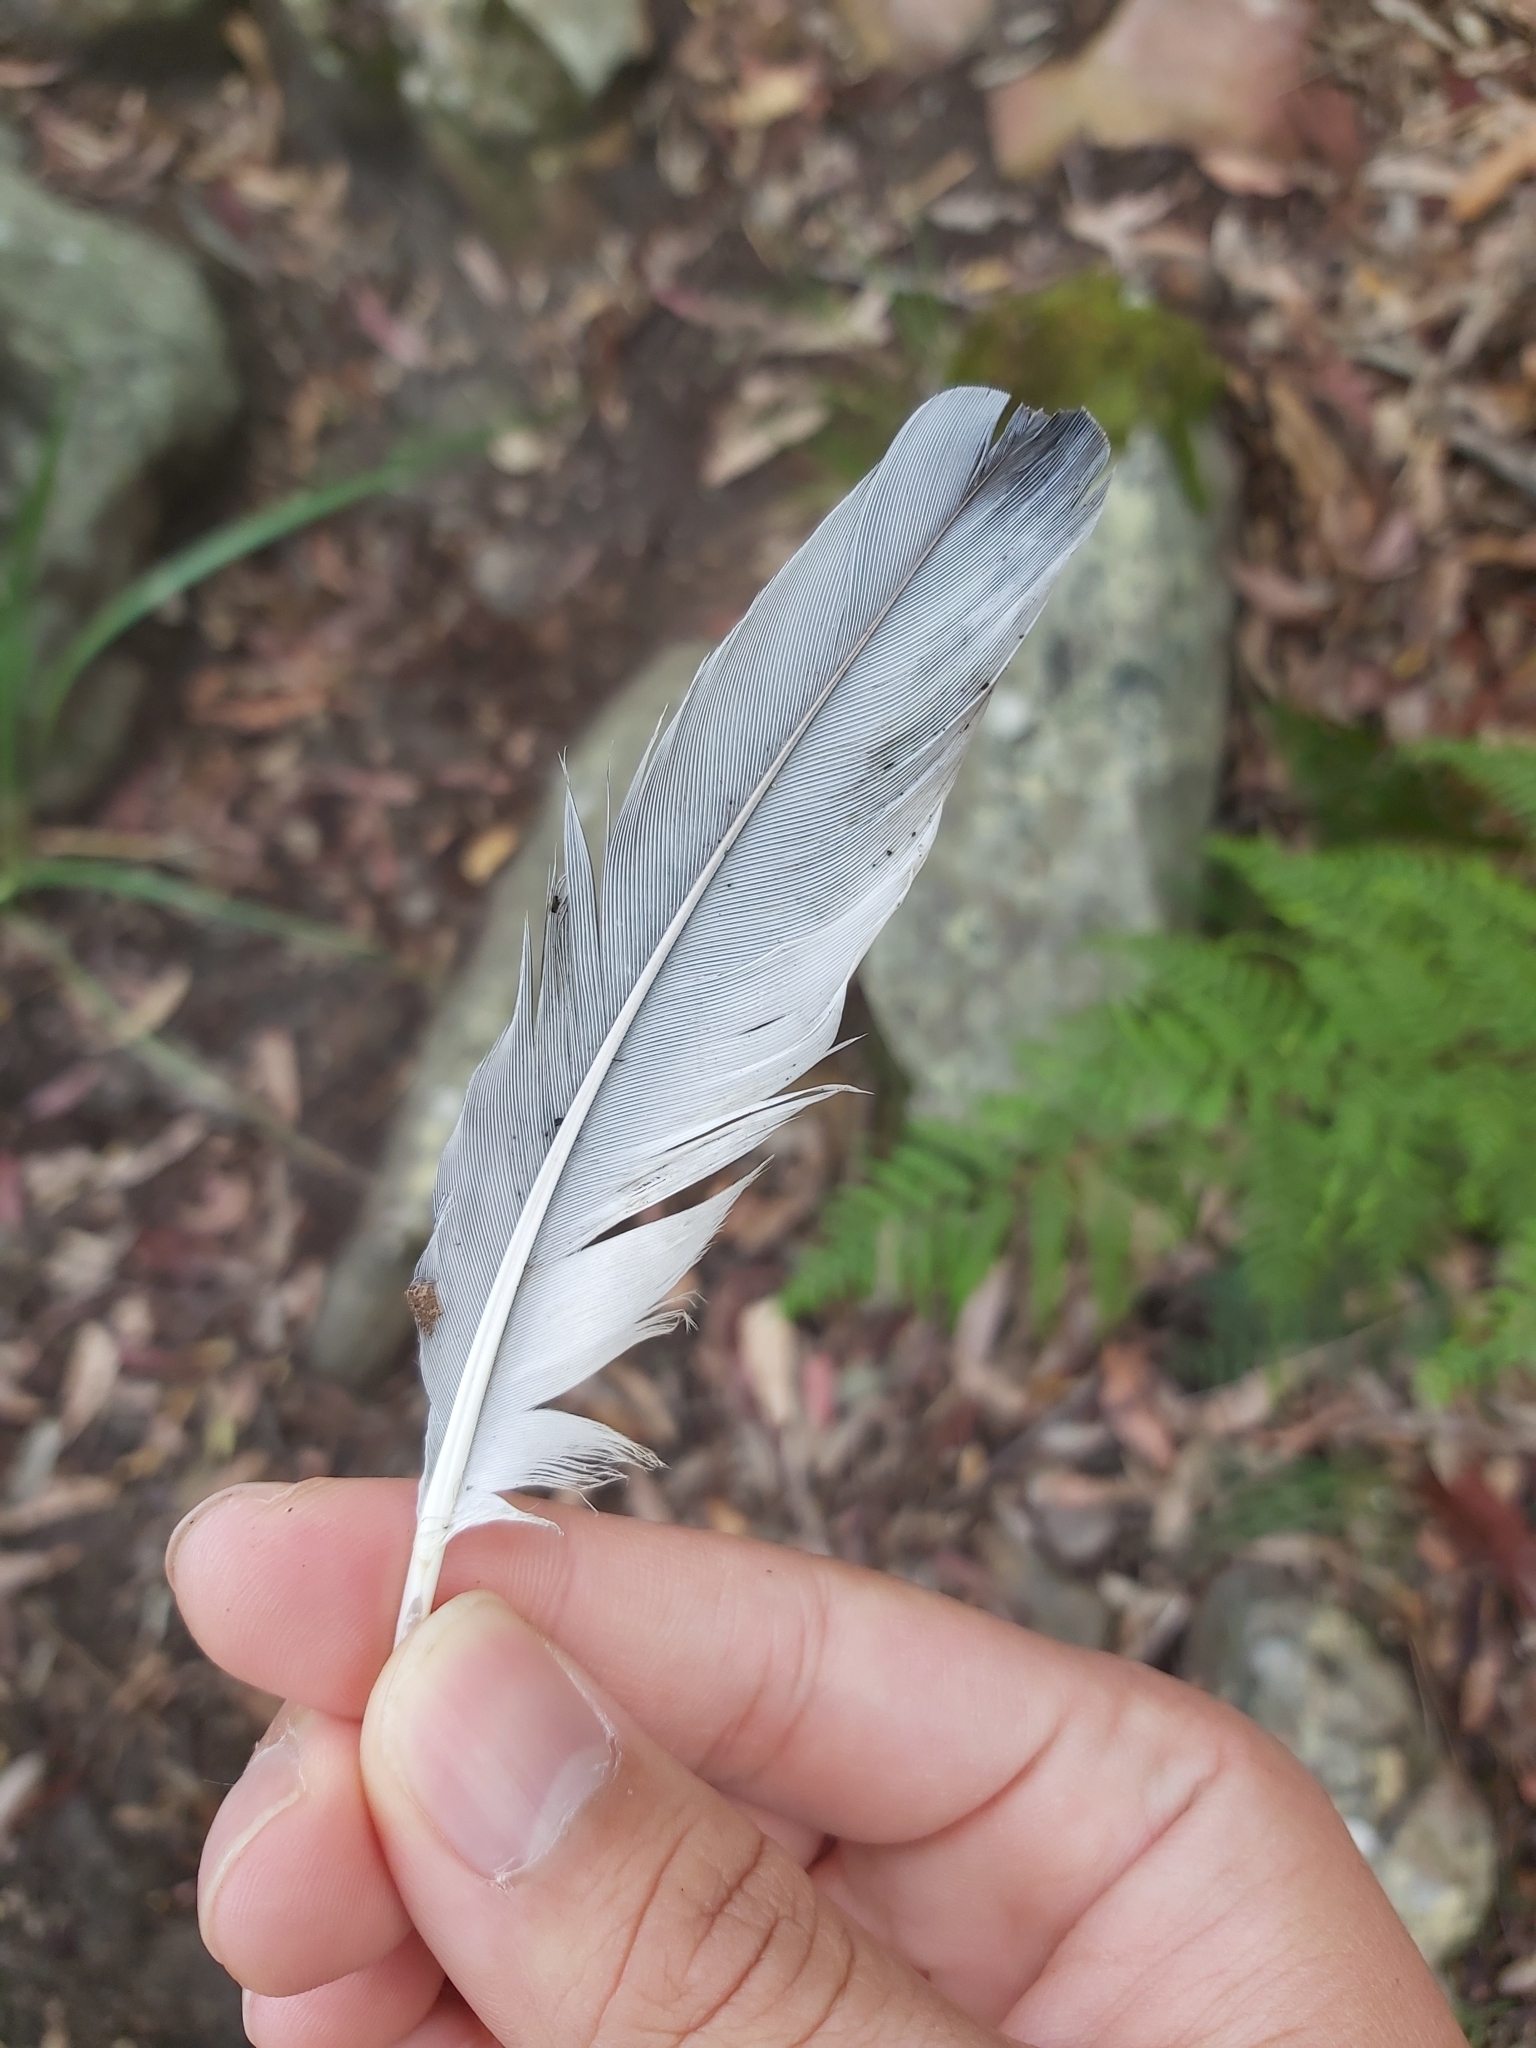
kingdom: Animalia
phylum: Chordata
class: Aves
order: Passeriformes
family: Campephagidae
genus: Coracina
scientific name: Coracina novaehollandiae
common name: Black-faced cuckooshrike
